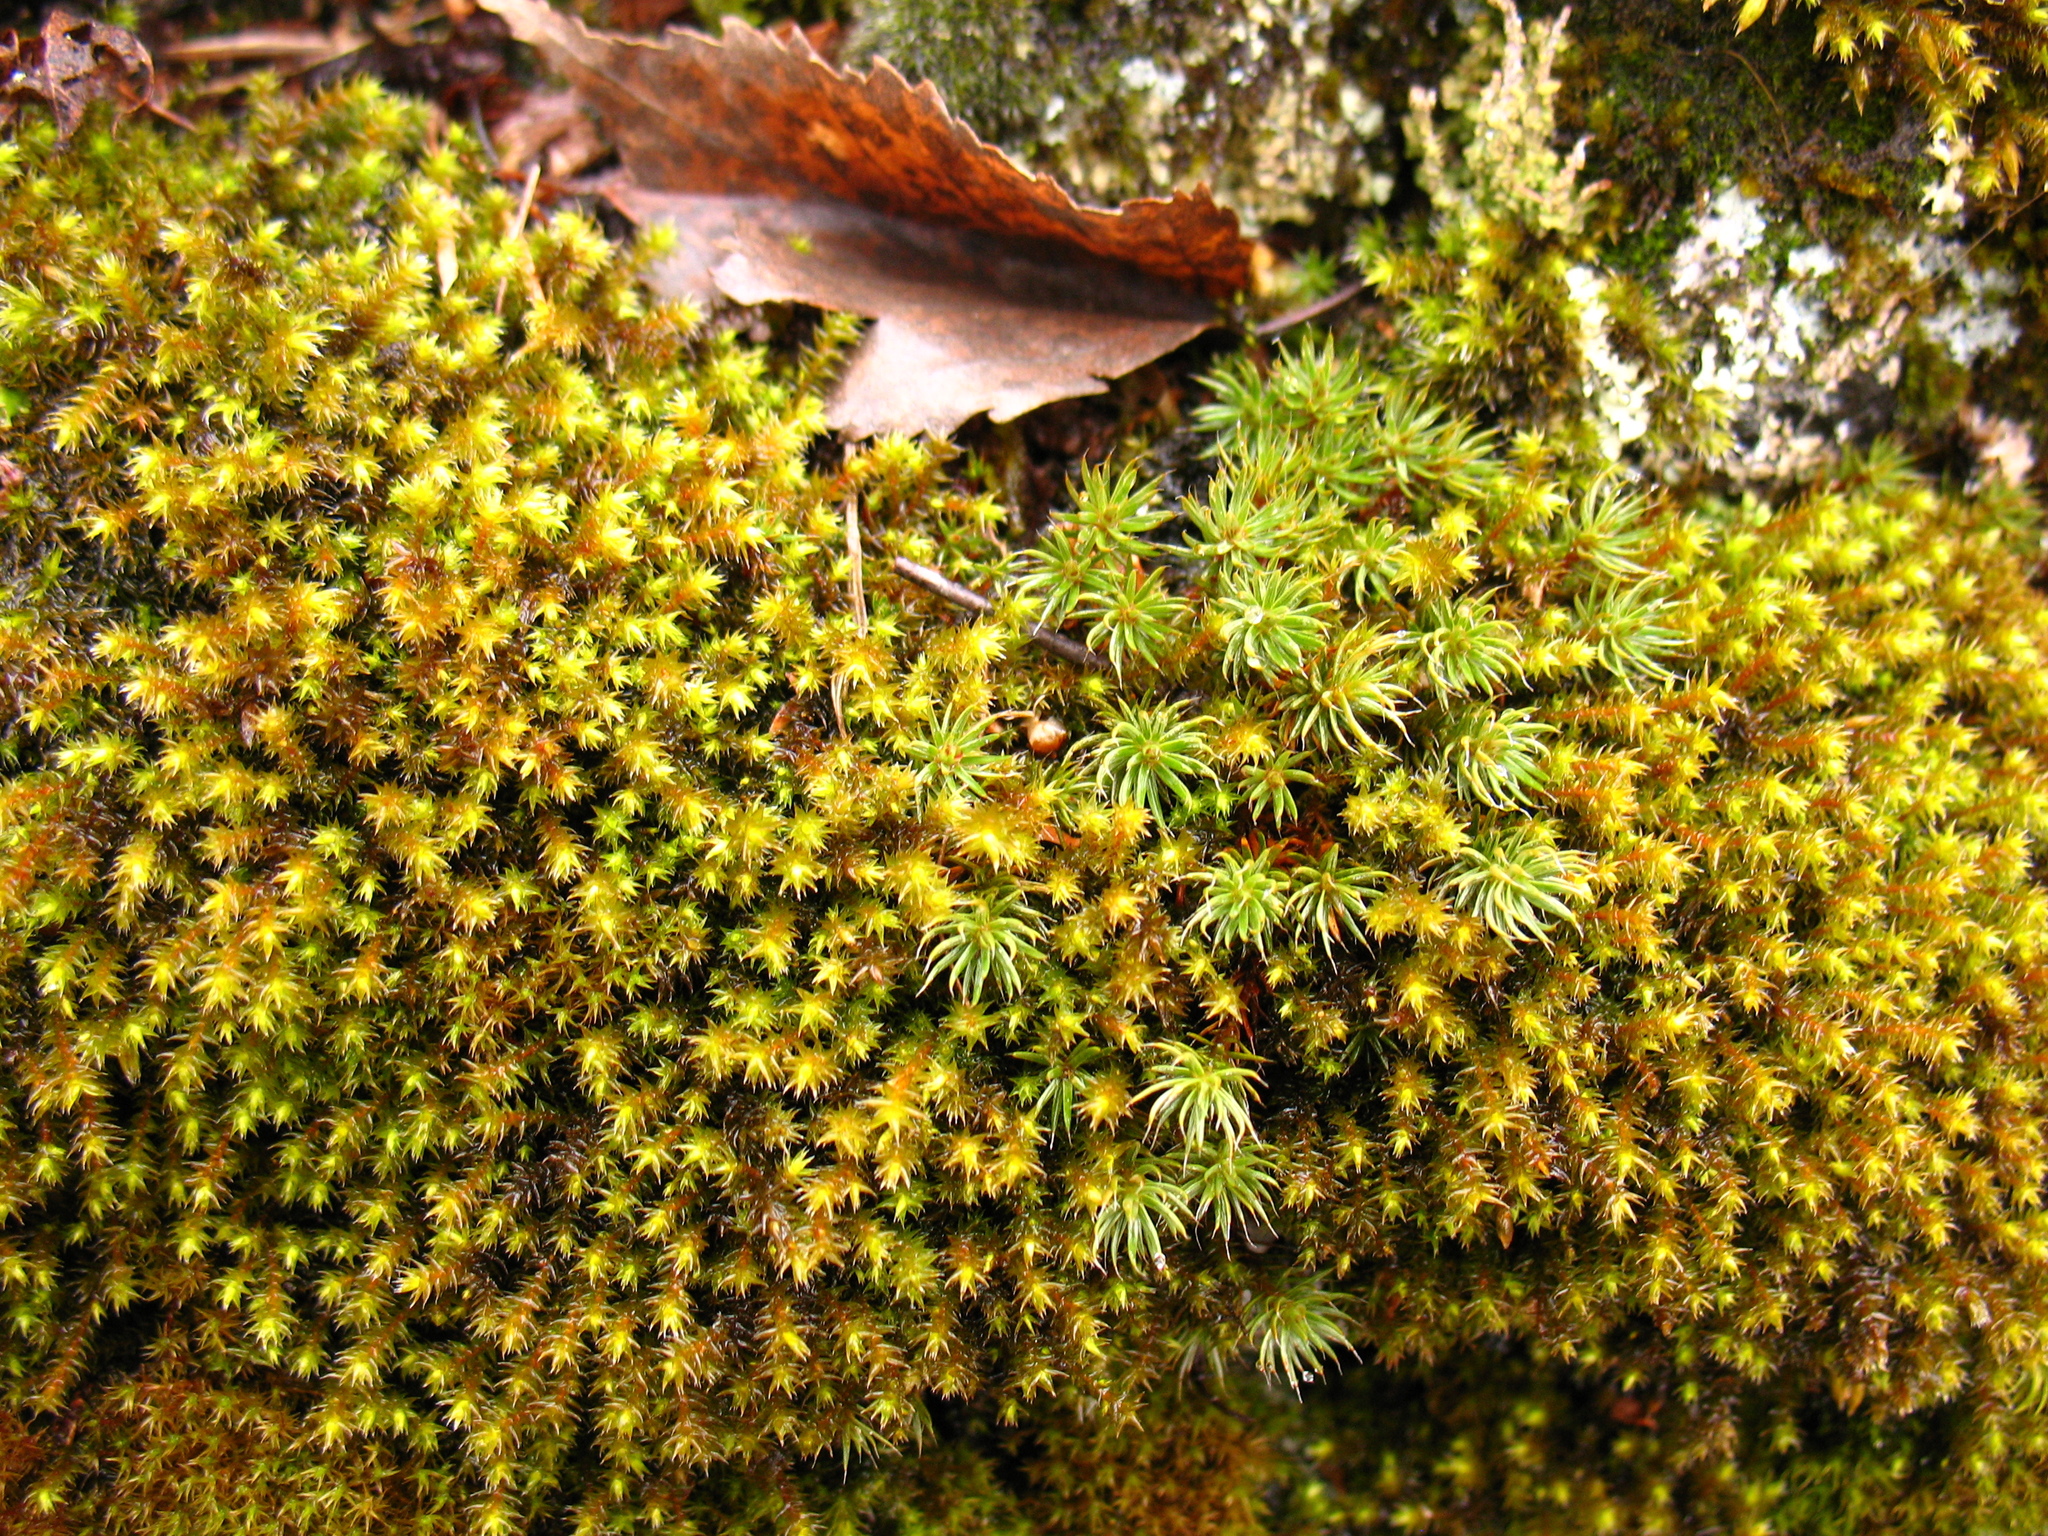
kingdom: Plantae
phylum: Bryophyta
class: Bryopsida
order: Hypnales
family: Anomodontaceae
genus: Anomodon
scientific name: Anomodon viticulosus
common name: Tall anomodon
